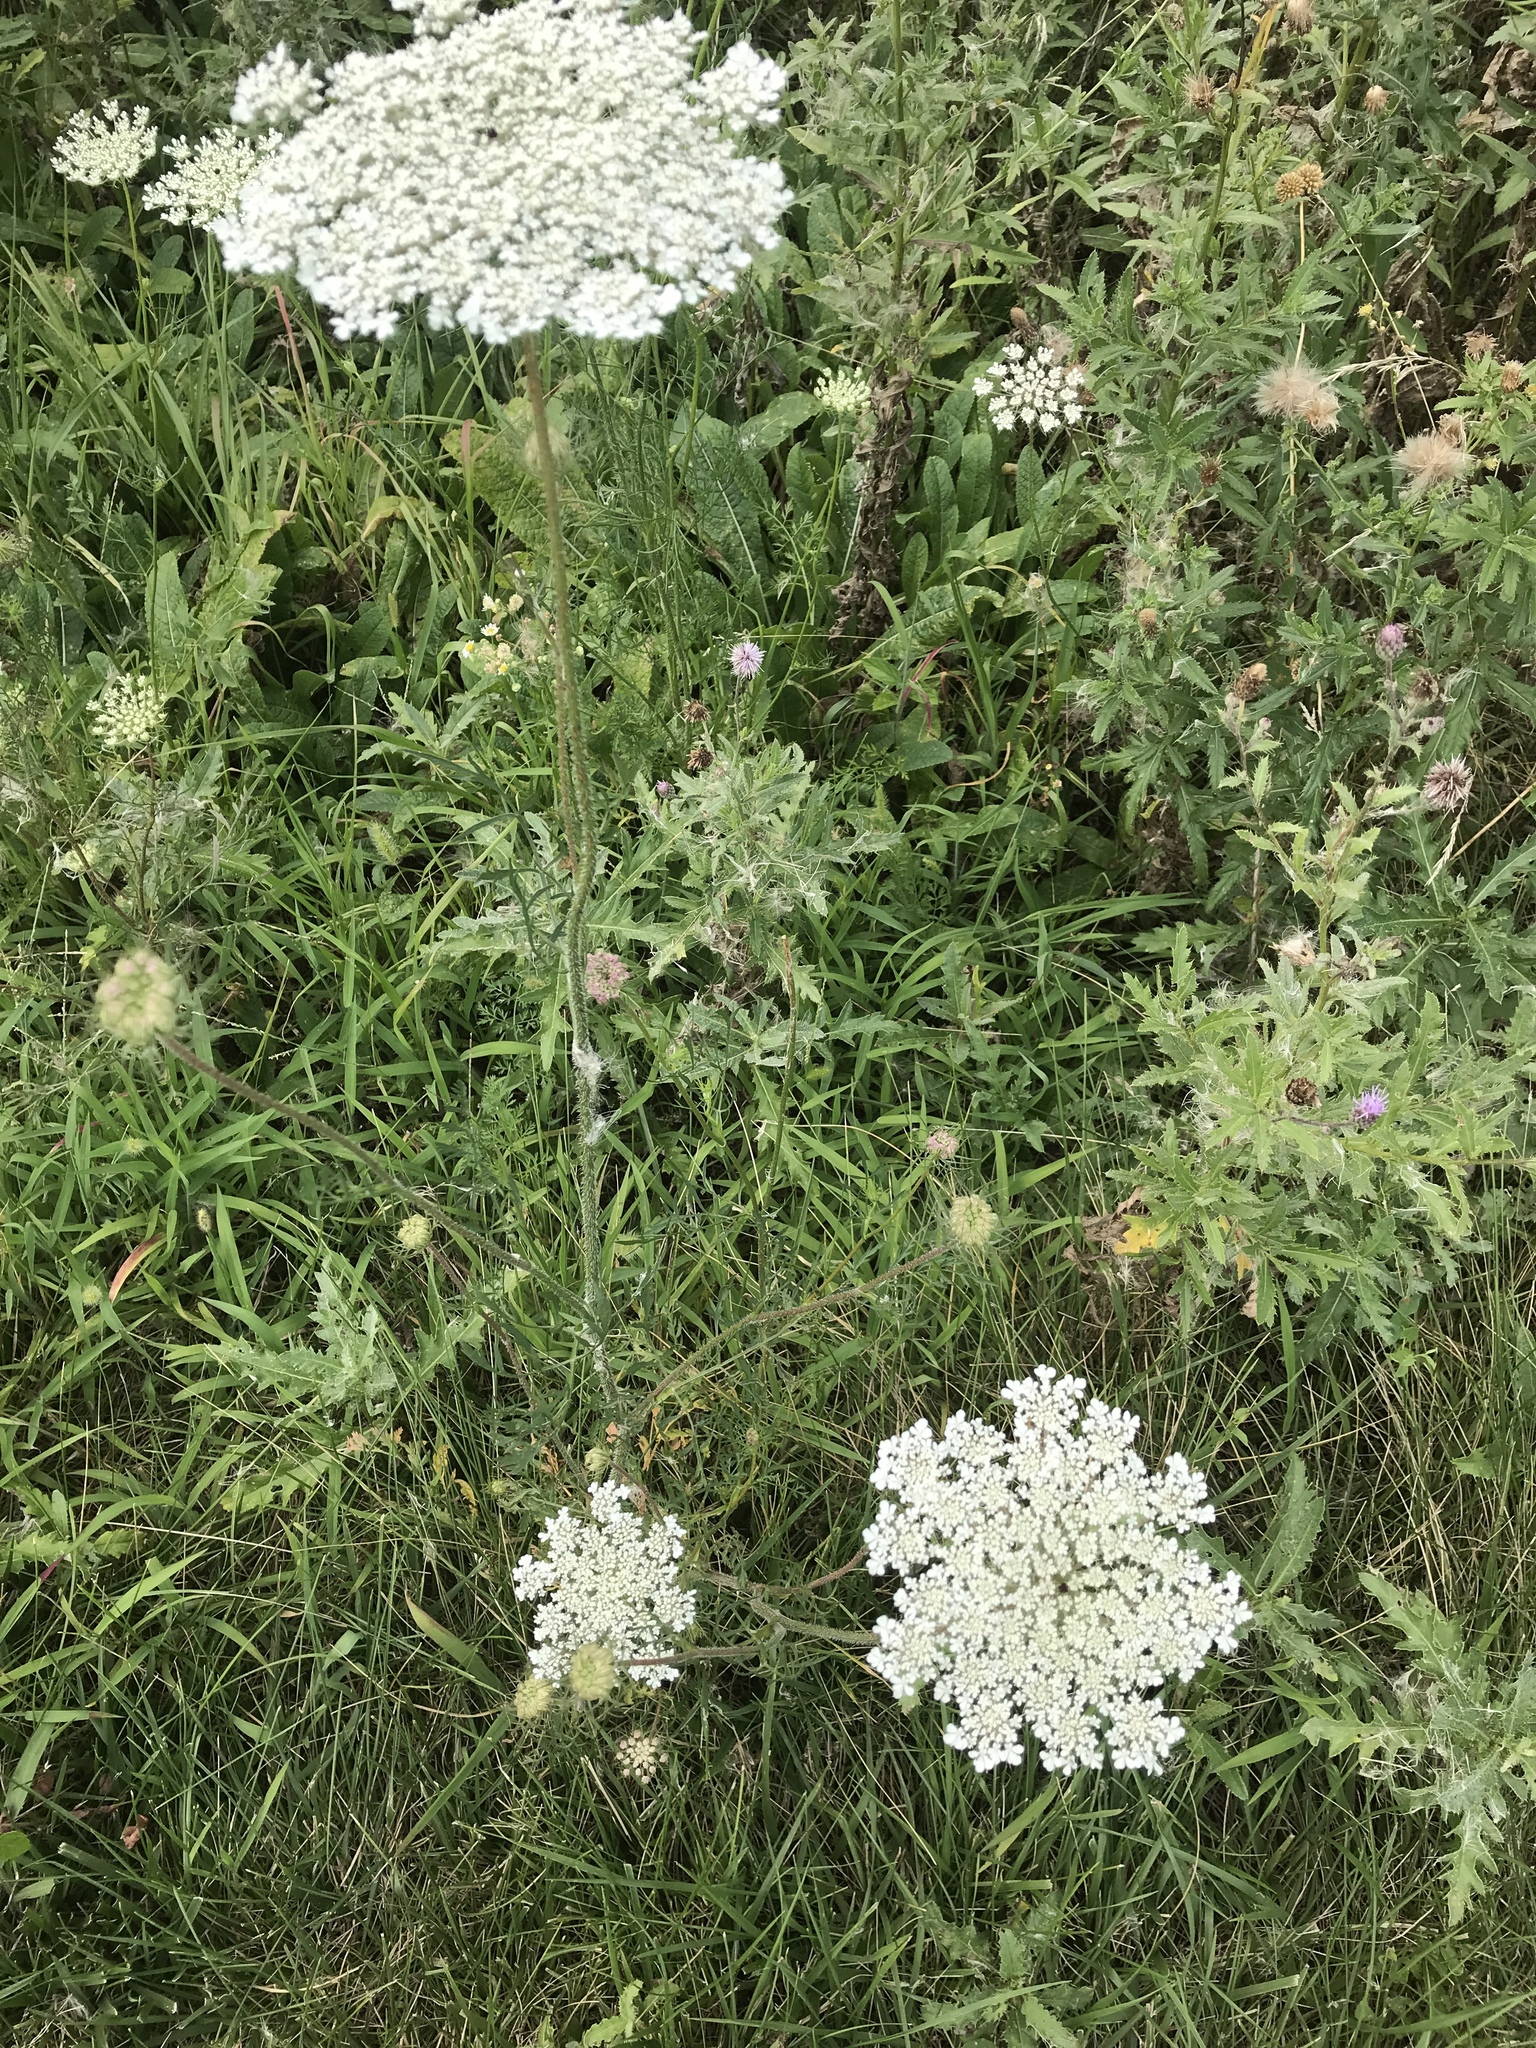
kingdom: Plantae
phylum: Tracheophyta
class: Magnoliopsida
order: Apiales
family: Apiaceae
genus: Daucus
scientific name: Daucus carota
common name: Wild carrot
